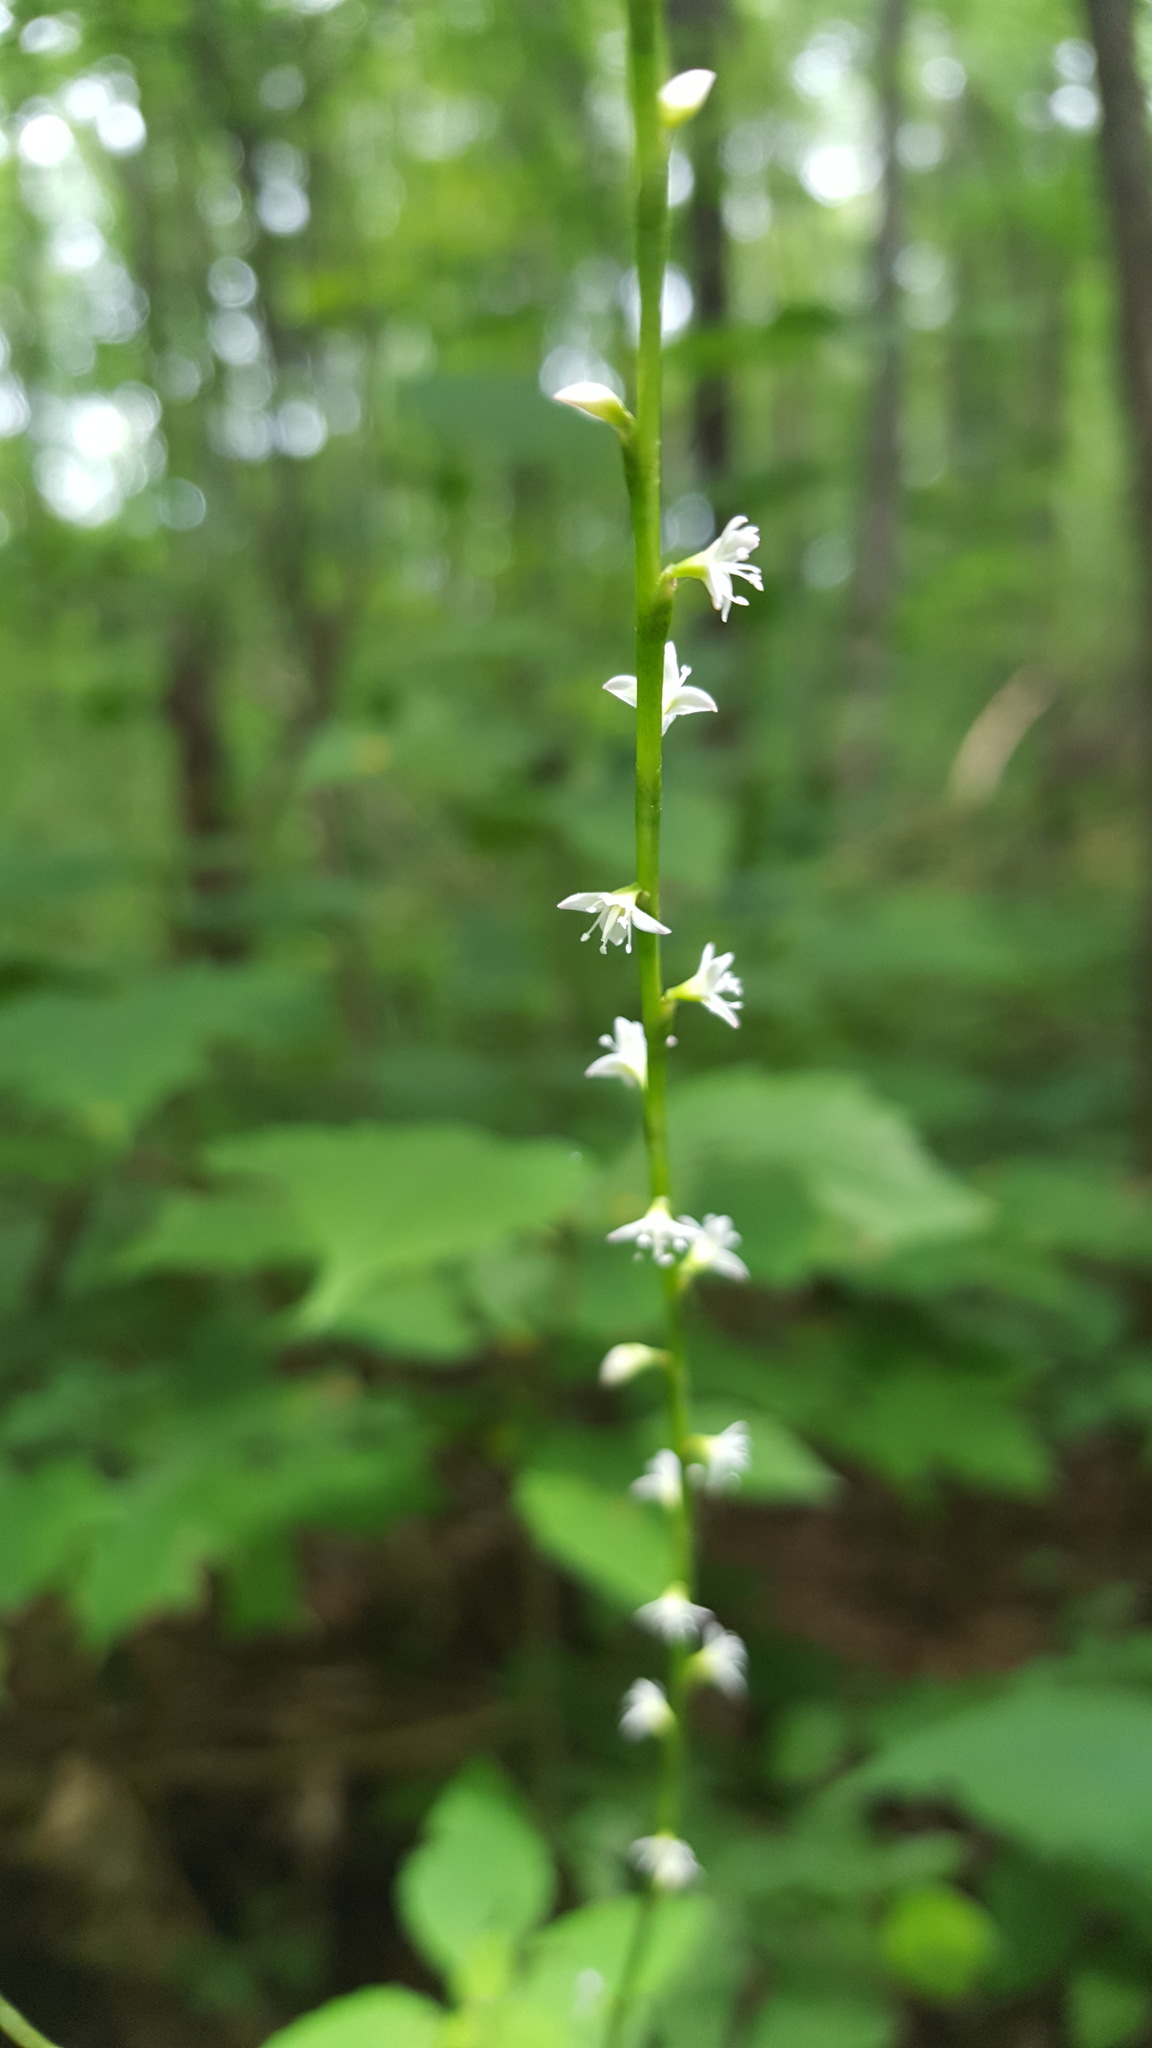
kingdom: Plantae
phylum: Tracheophyta
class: Magnoliopsida
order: Caryophyllales
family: Polygonaceae
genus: Persicaria
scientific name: Persicaria virginiana
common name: Jumpseed
